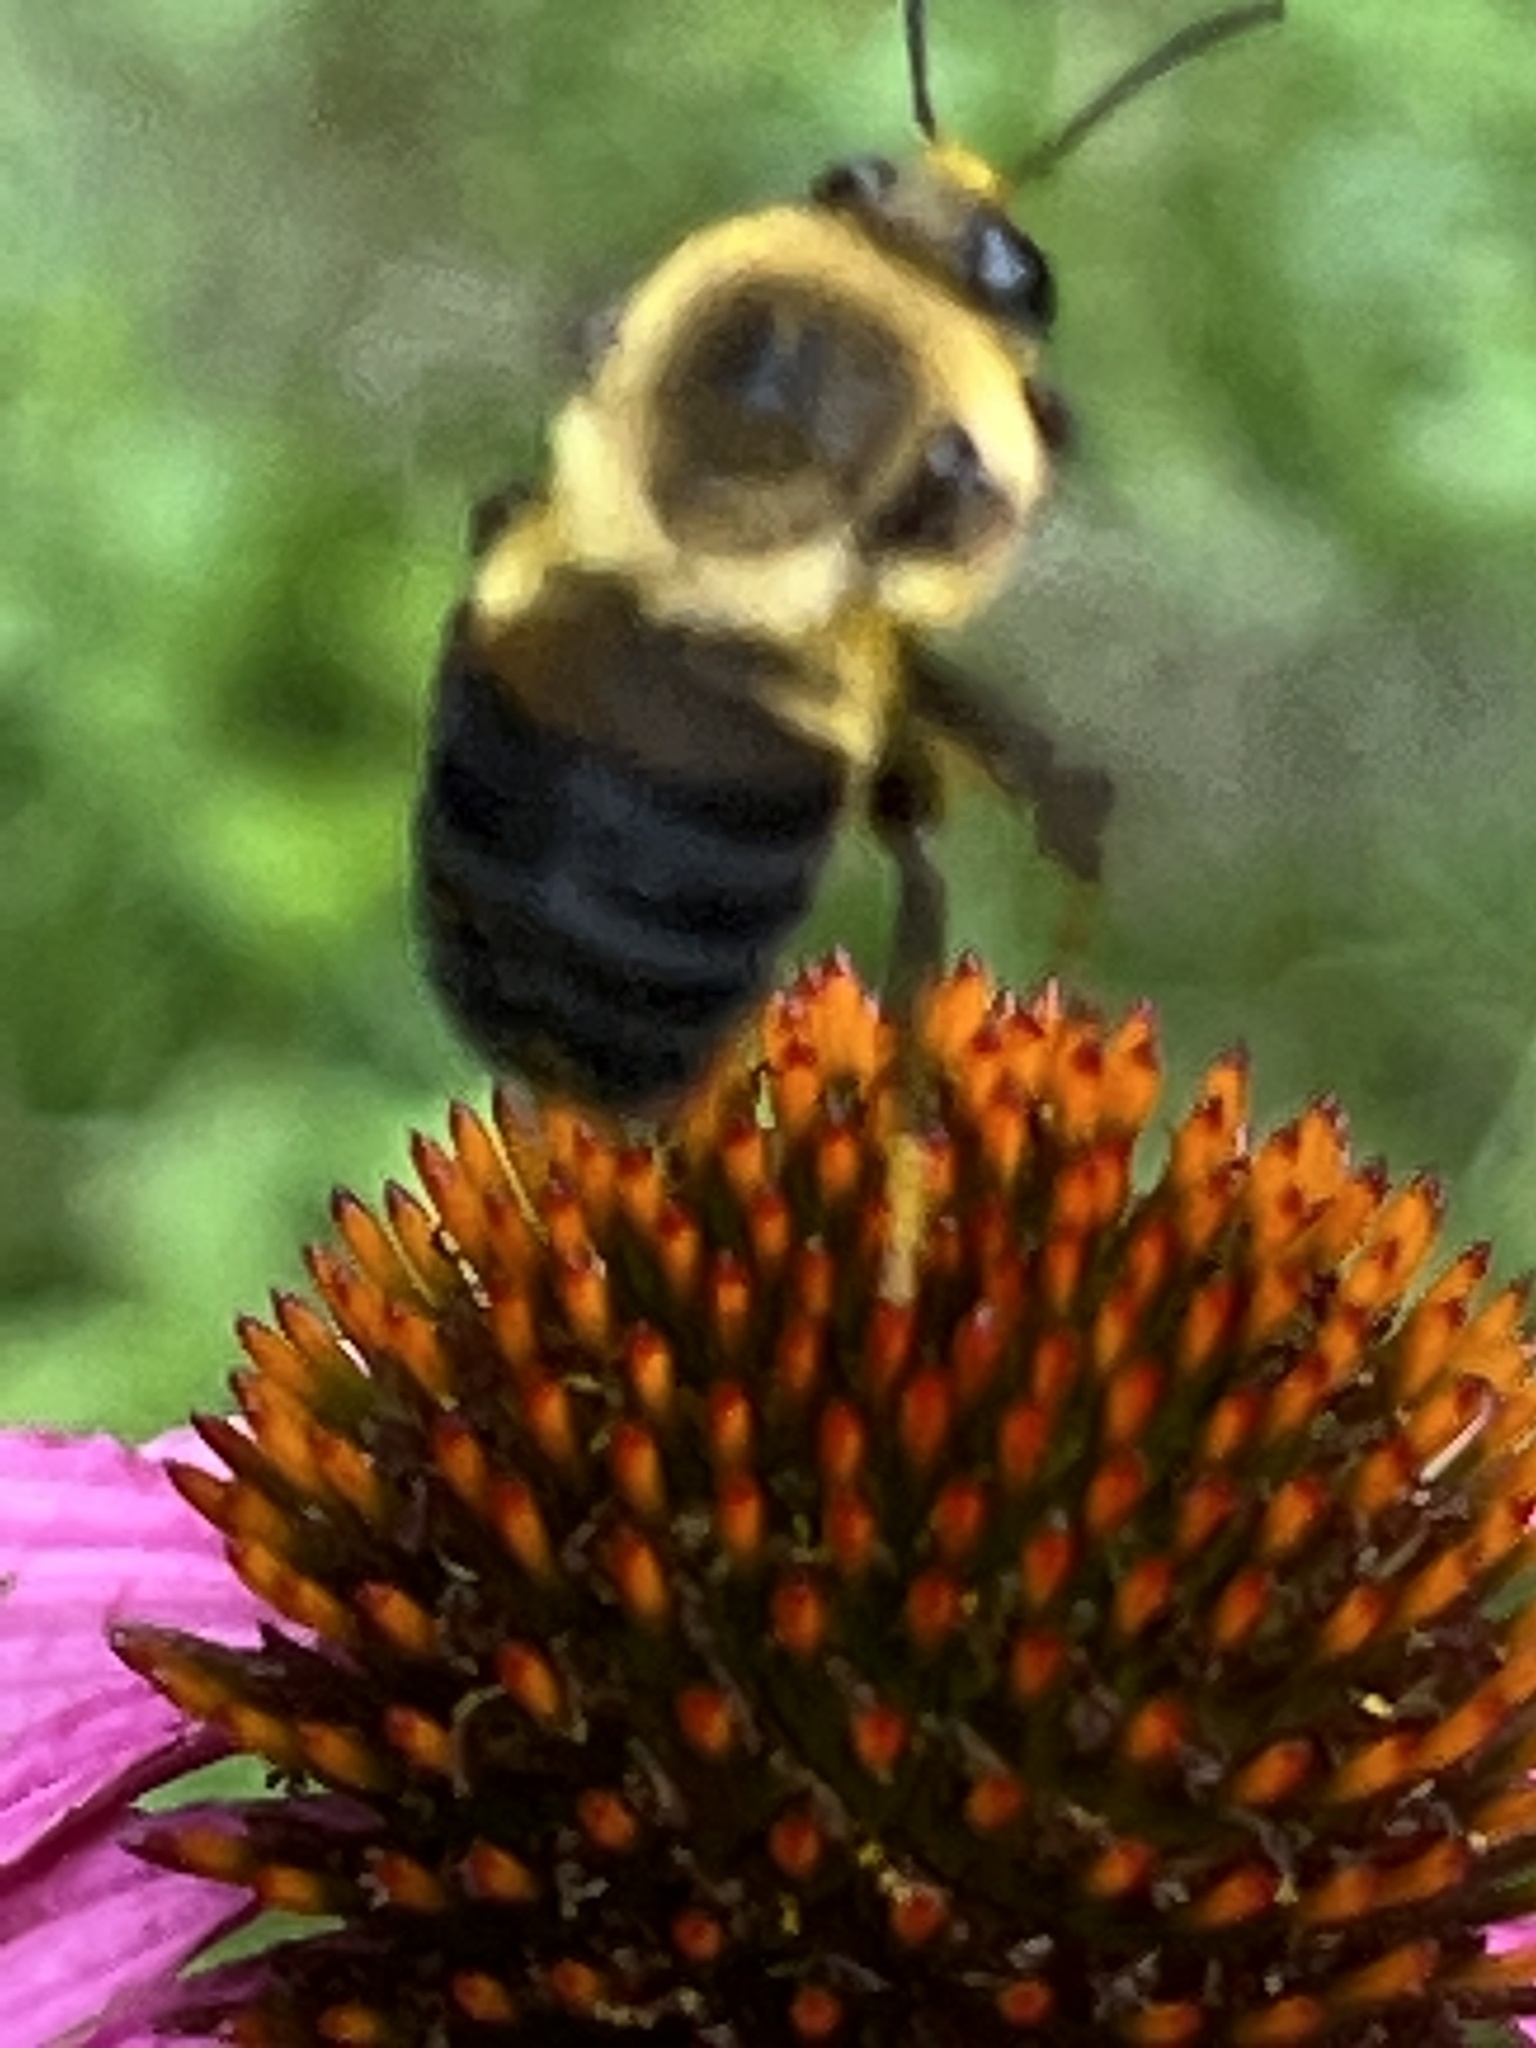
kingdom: Animalia
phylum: Arthropoda
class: Insecta
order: Hymenoptera
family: Apidae
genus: Bombus
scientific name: Bombus griseocollis
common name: Brown-belted bumble bee
